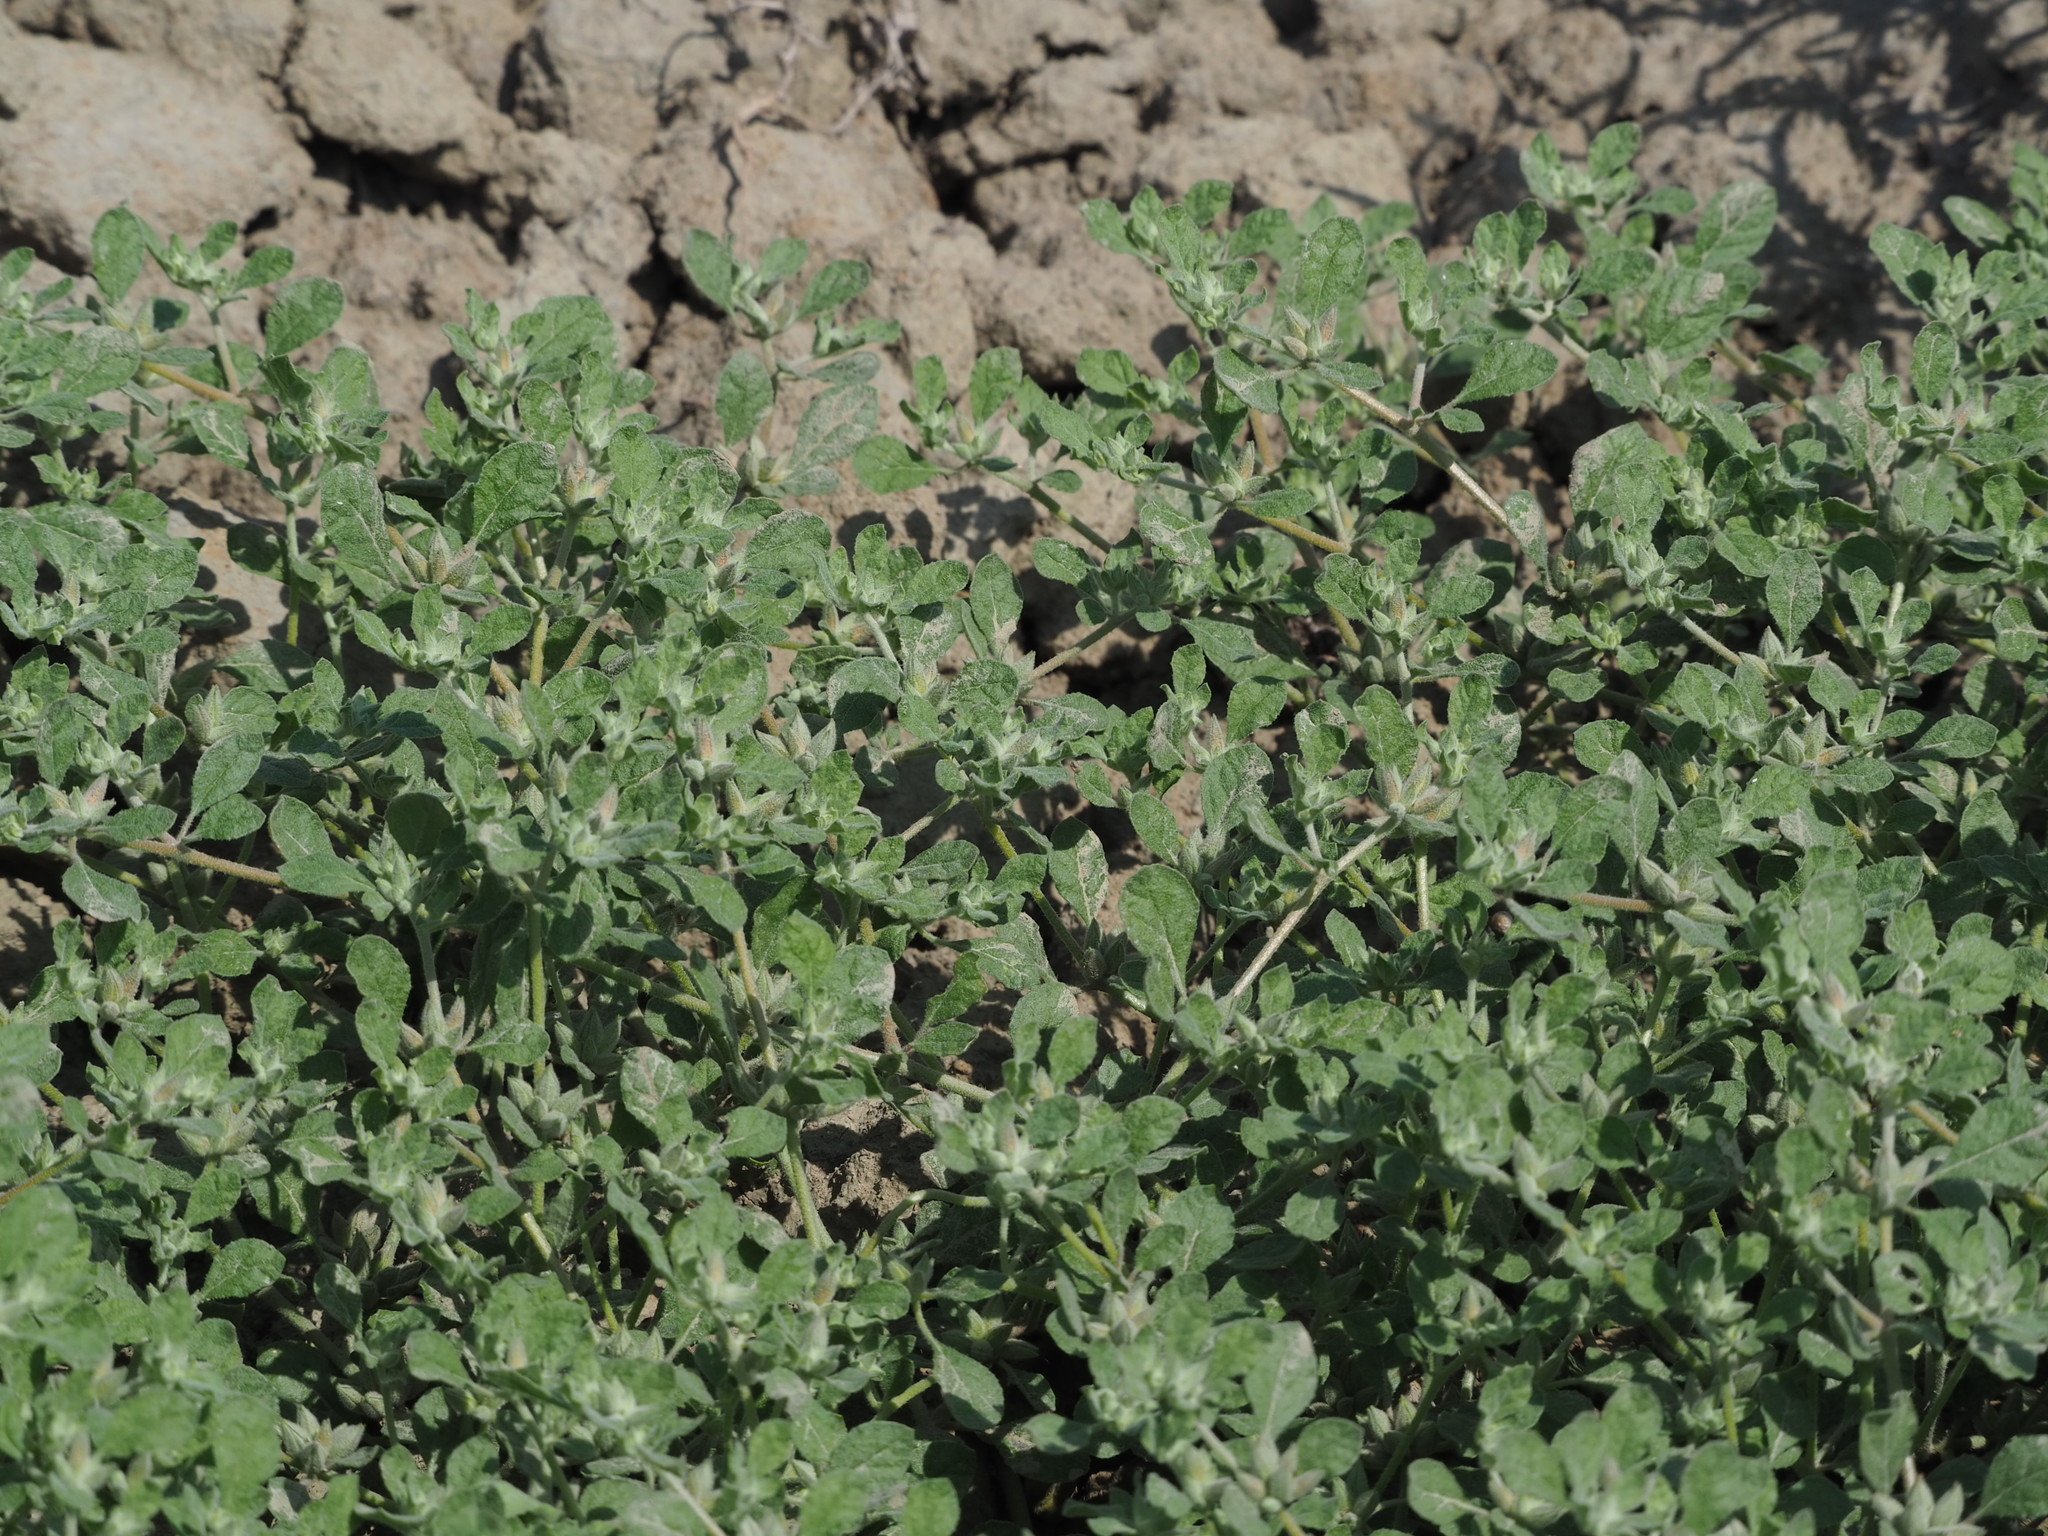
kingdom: Plantae
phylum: Tracheophyta
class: Magnoliopsida
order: Caryophyllales
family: Molluginaceae
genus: Glinus
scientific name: Glinus lotoides
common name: Lotus sweetjuice
